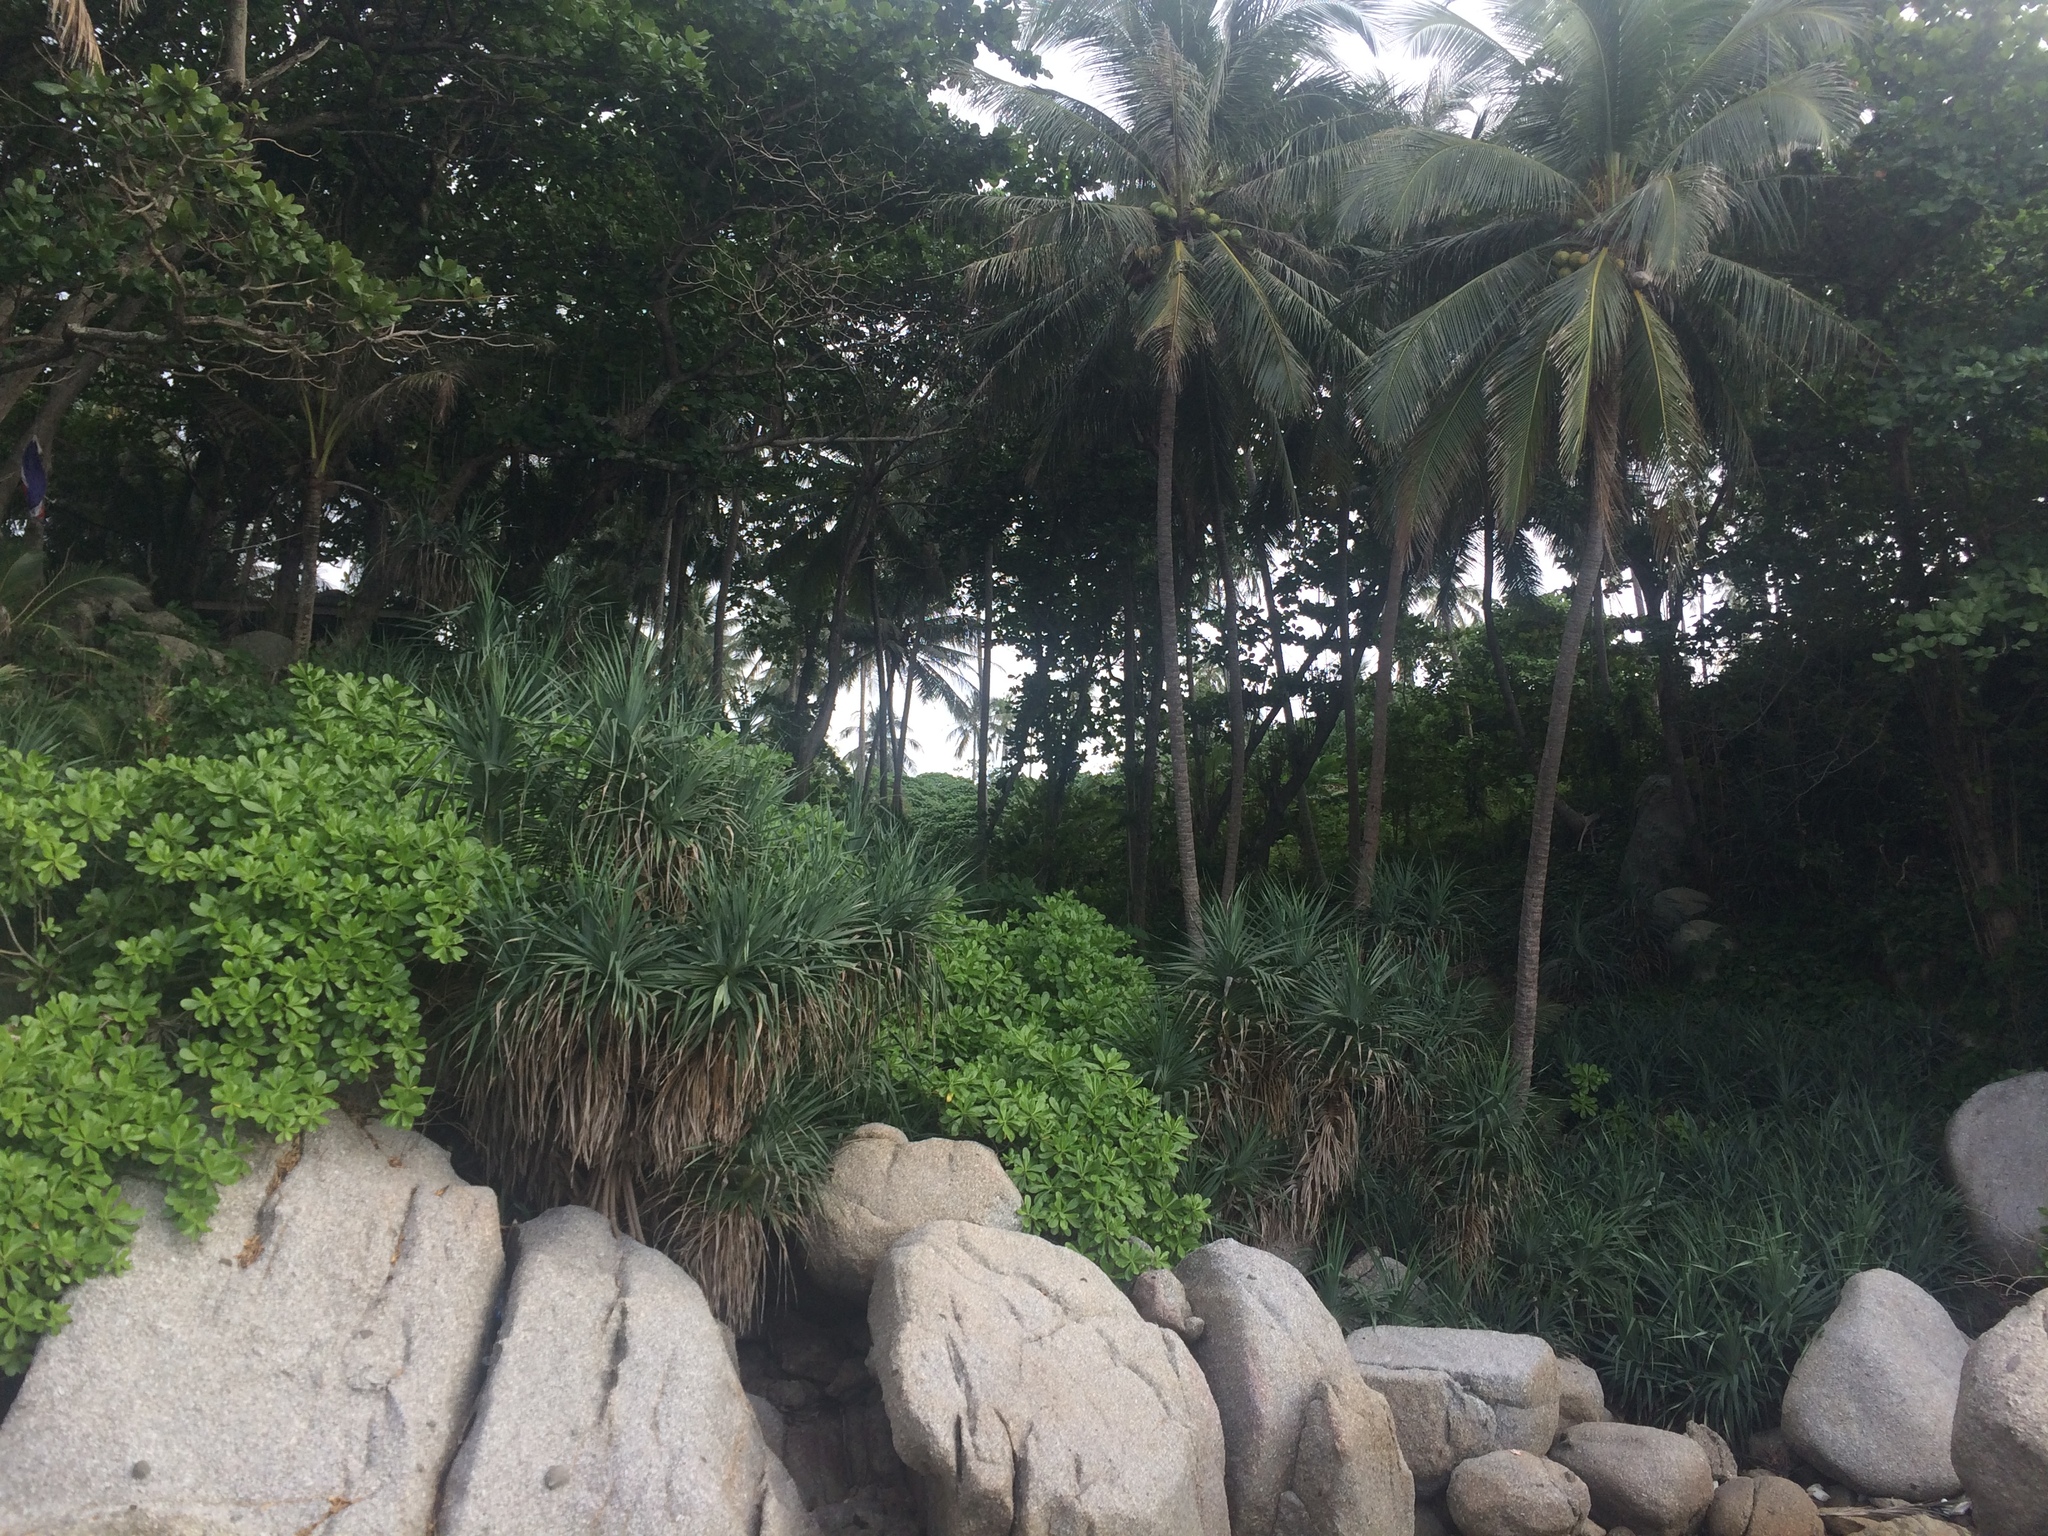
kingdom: Plantae
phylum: Tracheophyta
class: Liliopsida
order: Arecales
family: Arecaceae
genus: Cocos
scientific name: Cocos nucifera
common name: Coconut palm
